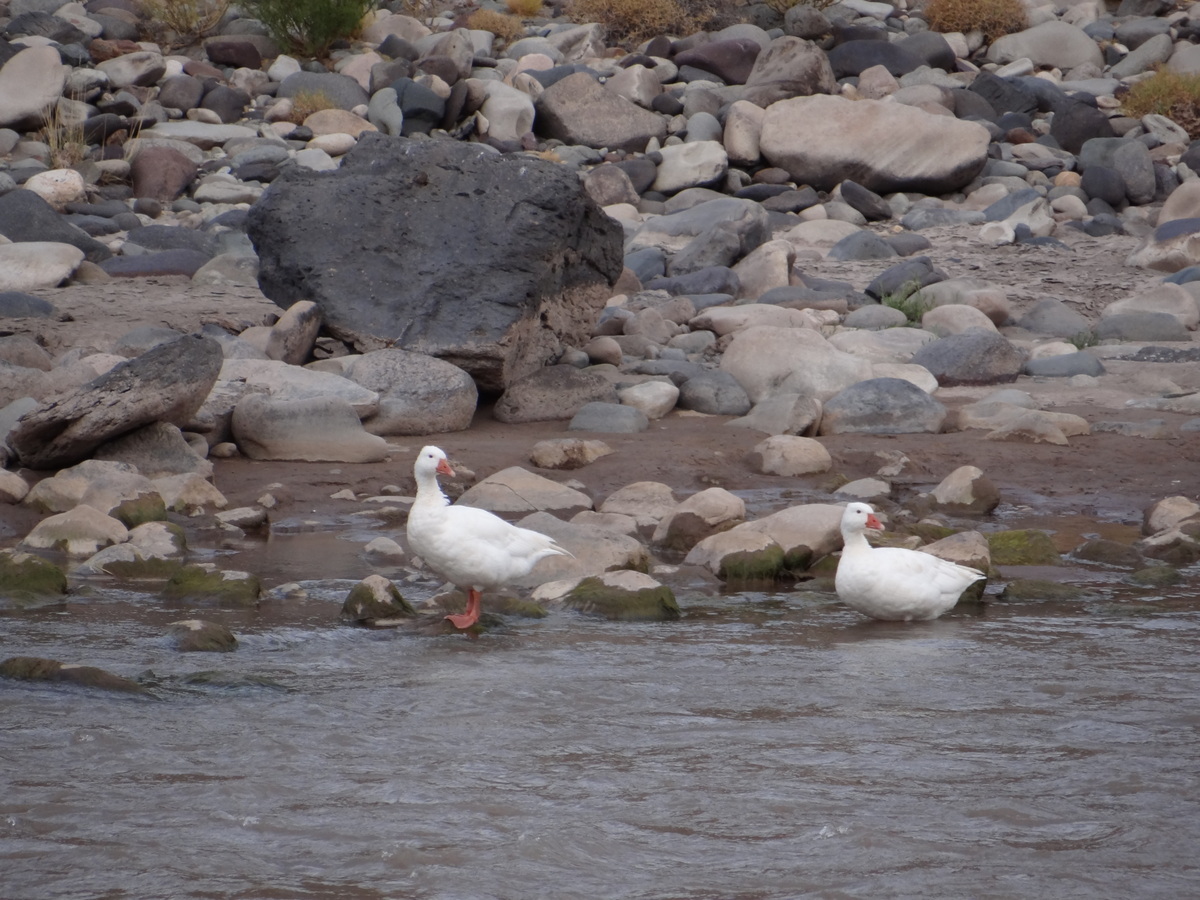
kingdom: Animalia
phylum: Chordata
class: Aves
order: Anseriformes
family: Anatidae
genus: Anser
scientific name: Anser anser
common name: Greylag goose
